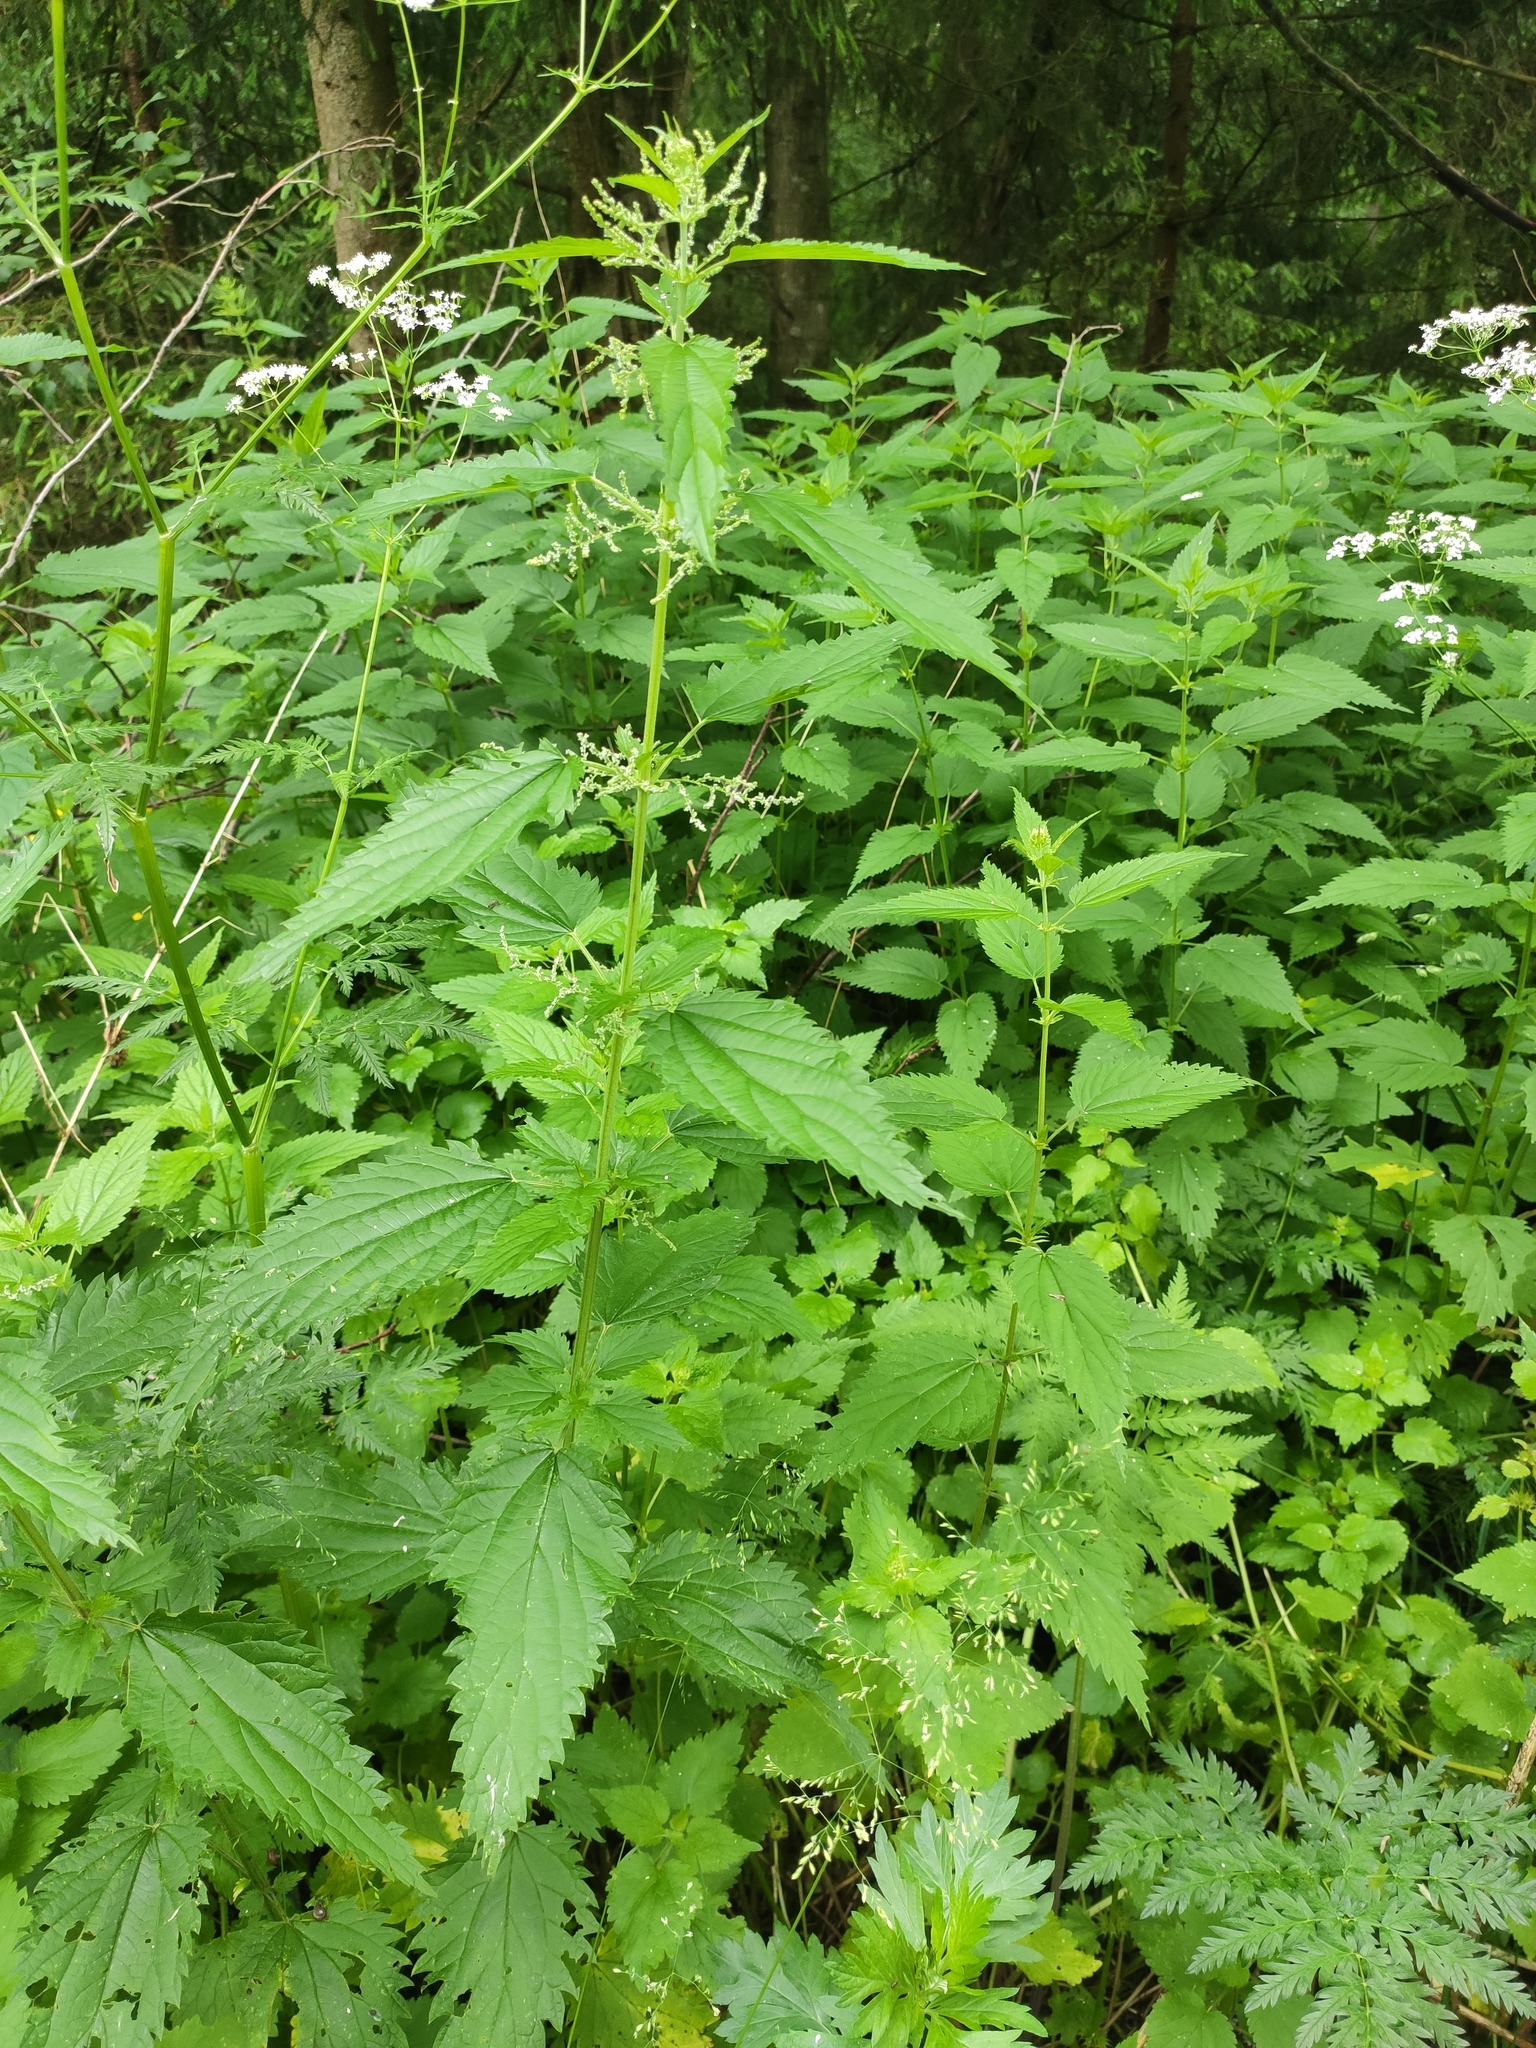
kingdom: Plantae
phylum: Tracheophyta
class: Magnoliopsida
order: Rosales
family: Urticaceae
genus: Urtica
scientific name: Urtica dioica
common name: Common nettle
